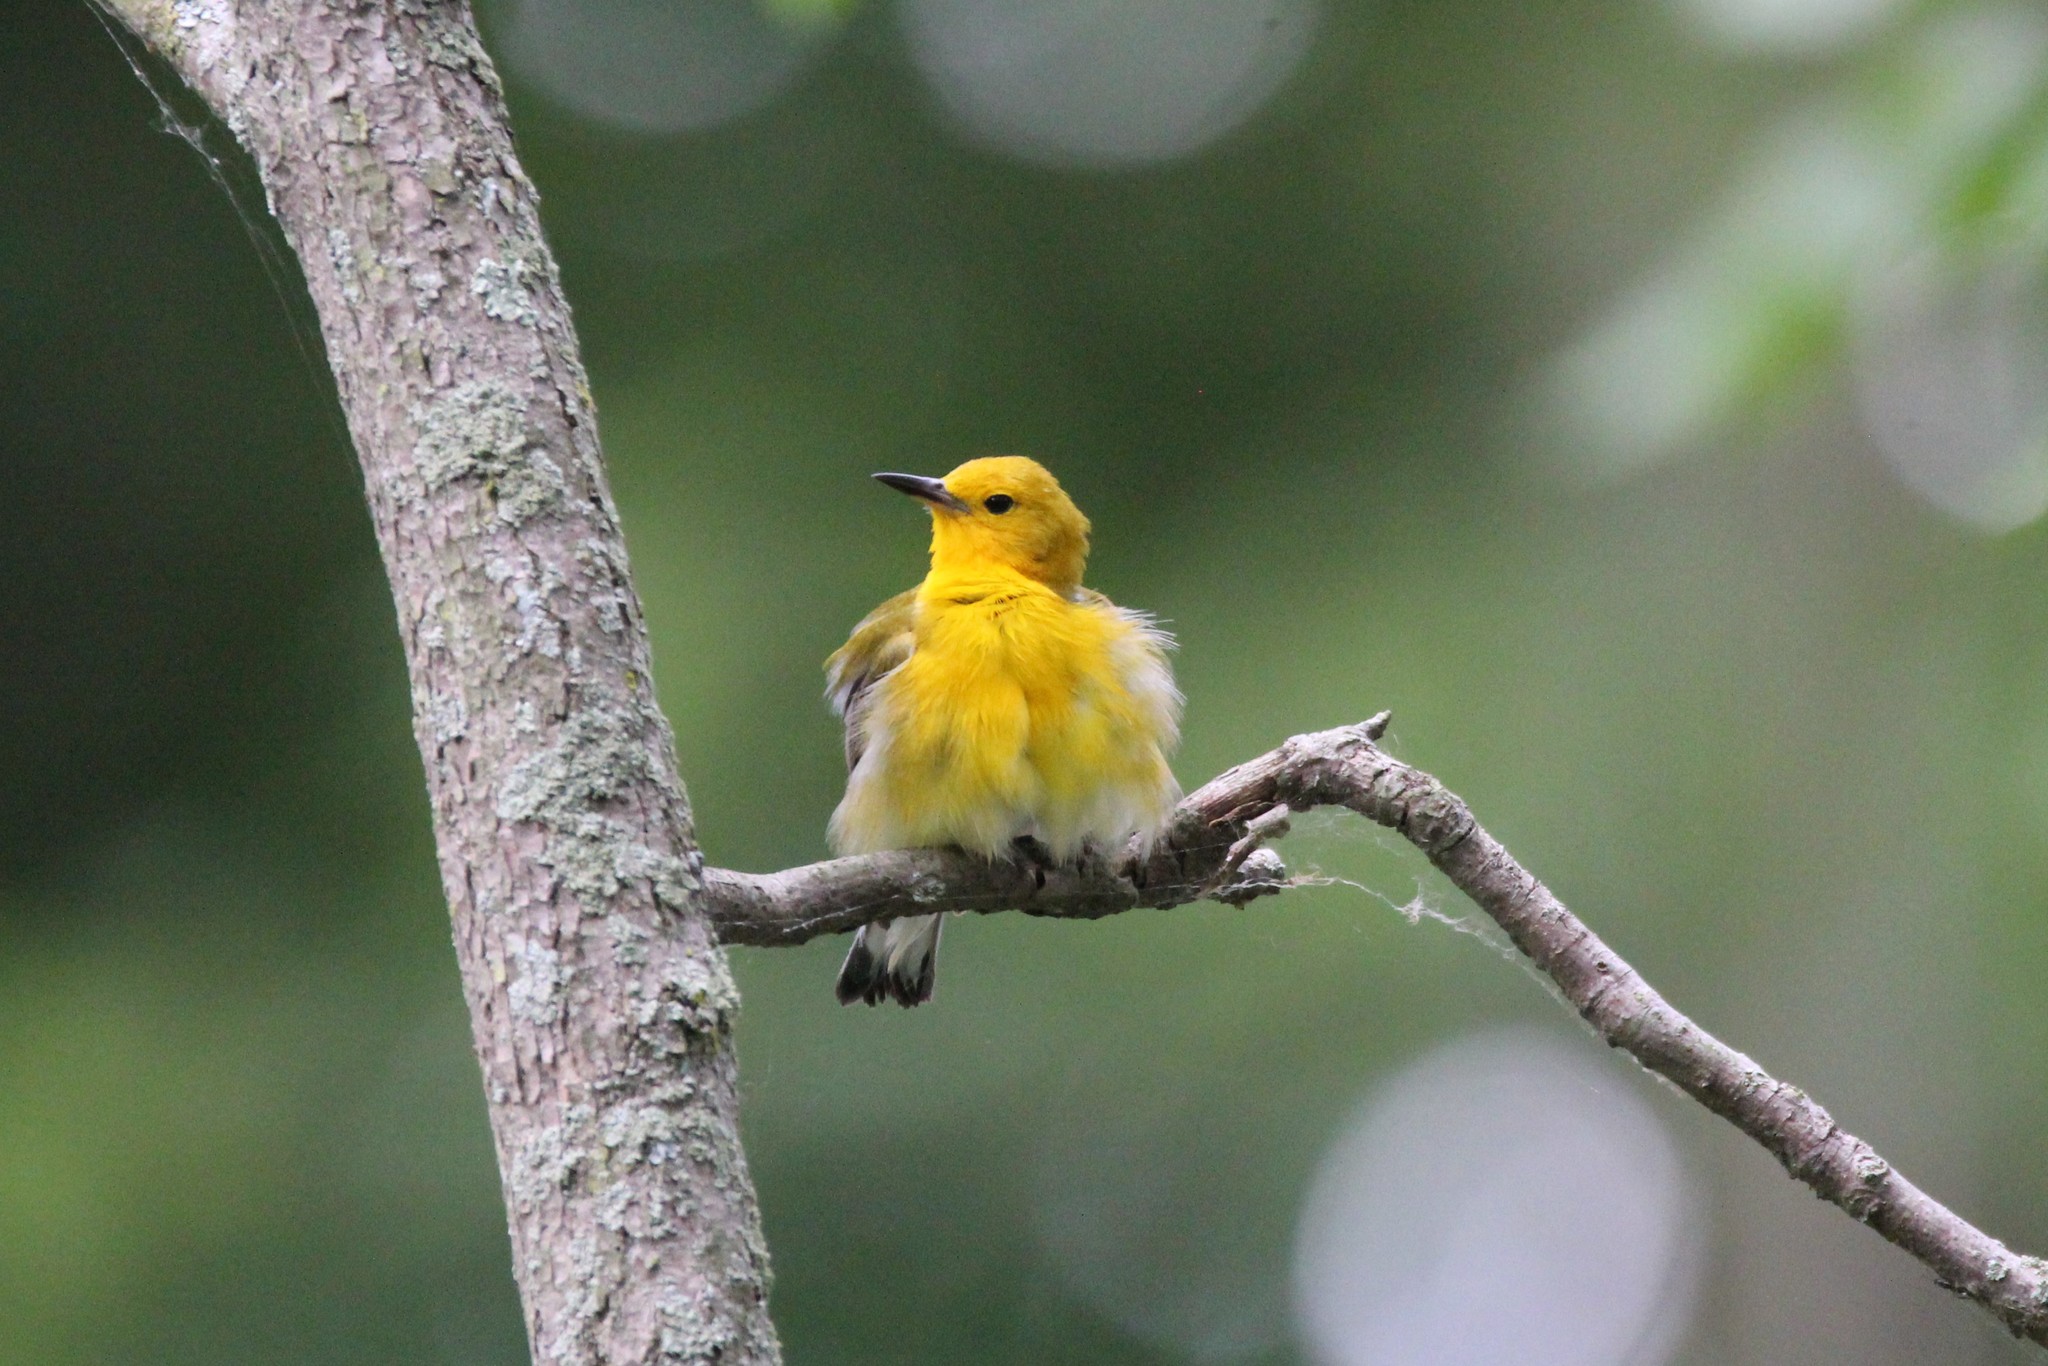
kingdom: Animalia
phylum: Chordata
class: Aves
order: Passeriformes
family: Parulidae
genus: Protonotaria
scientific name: Protonotaria citrea
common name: Prothonotary warbler
